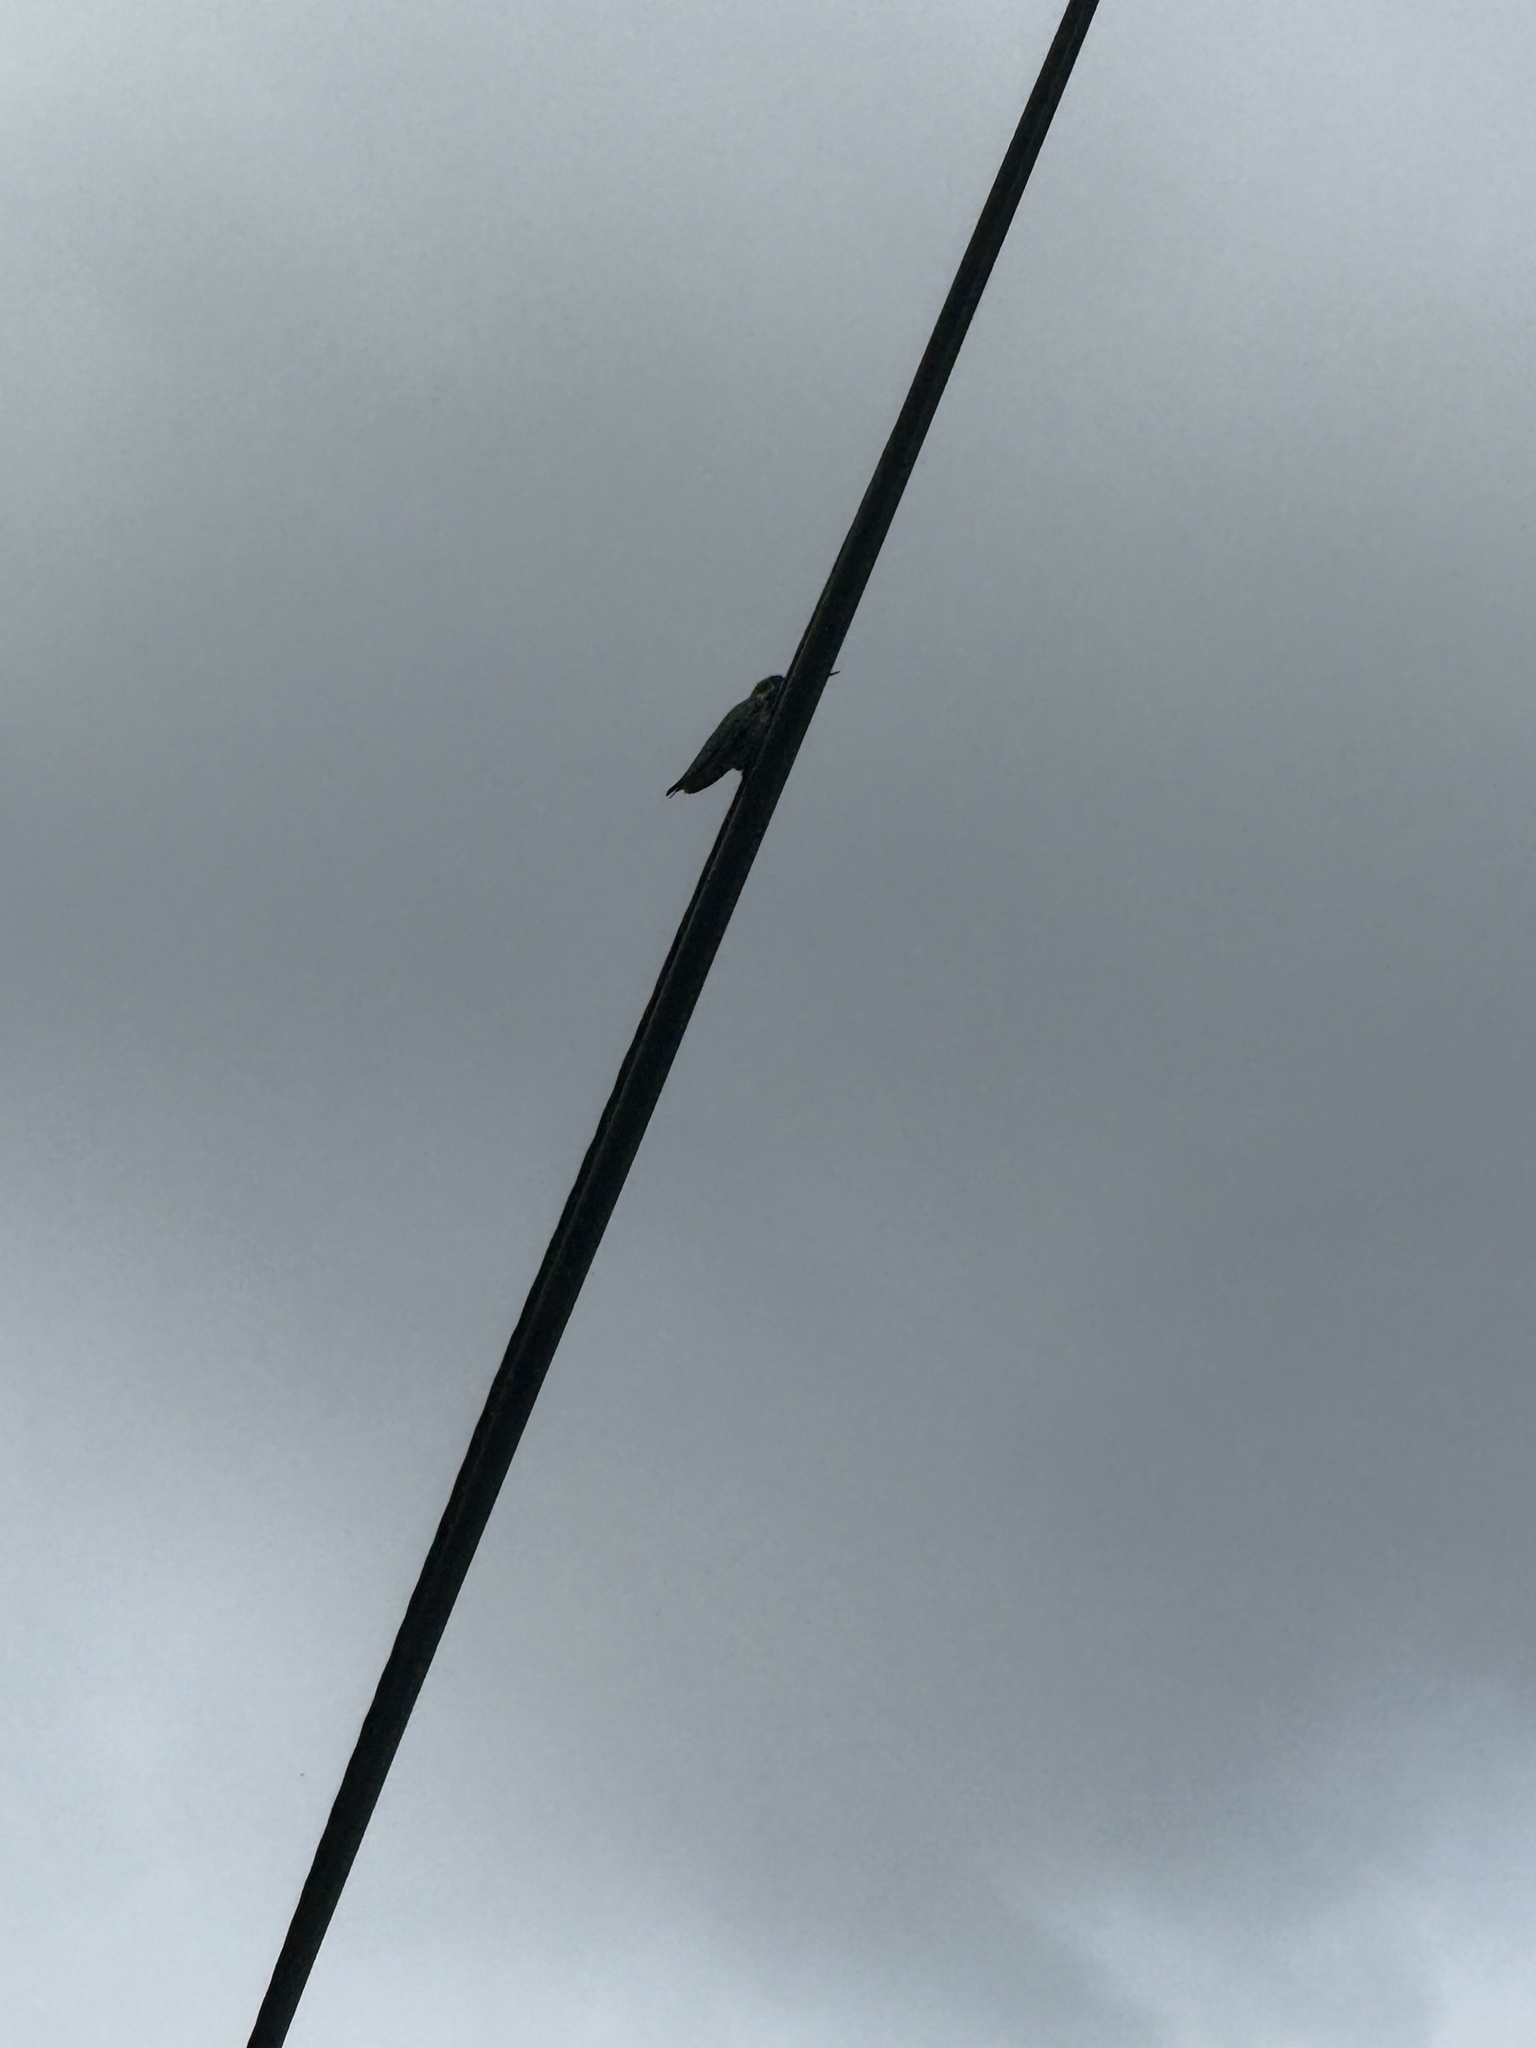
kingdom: Animalia
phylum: Chordata
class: Aves
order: Apodiformes
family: Trochilidae
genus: Calypte
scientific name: Calypte anna
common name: Anna's hummingbird
